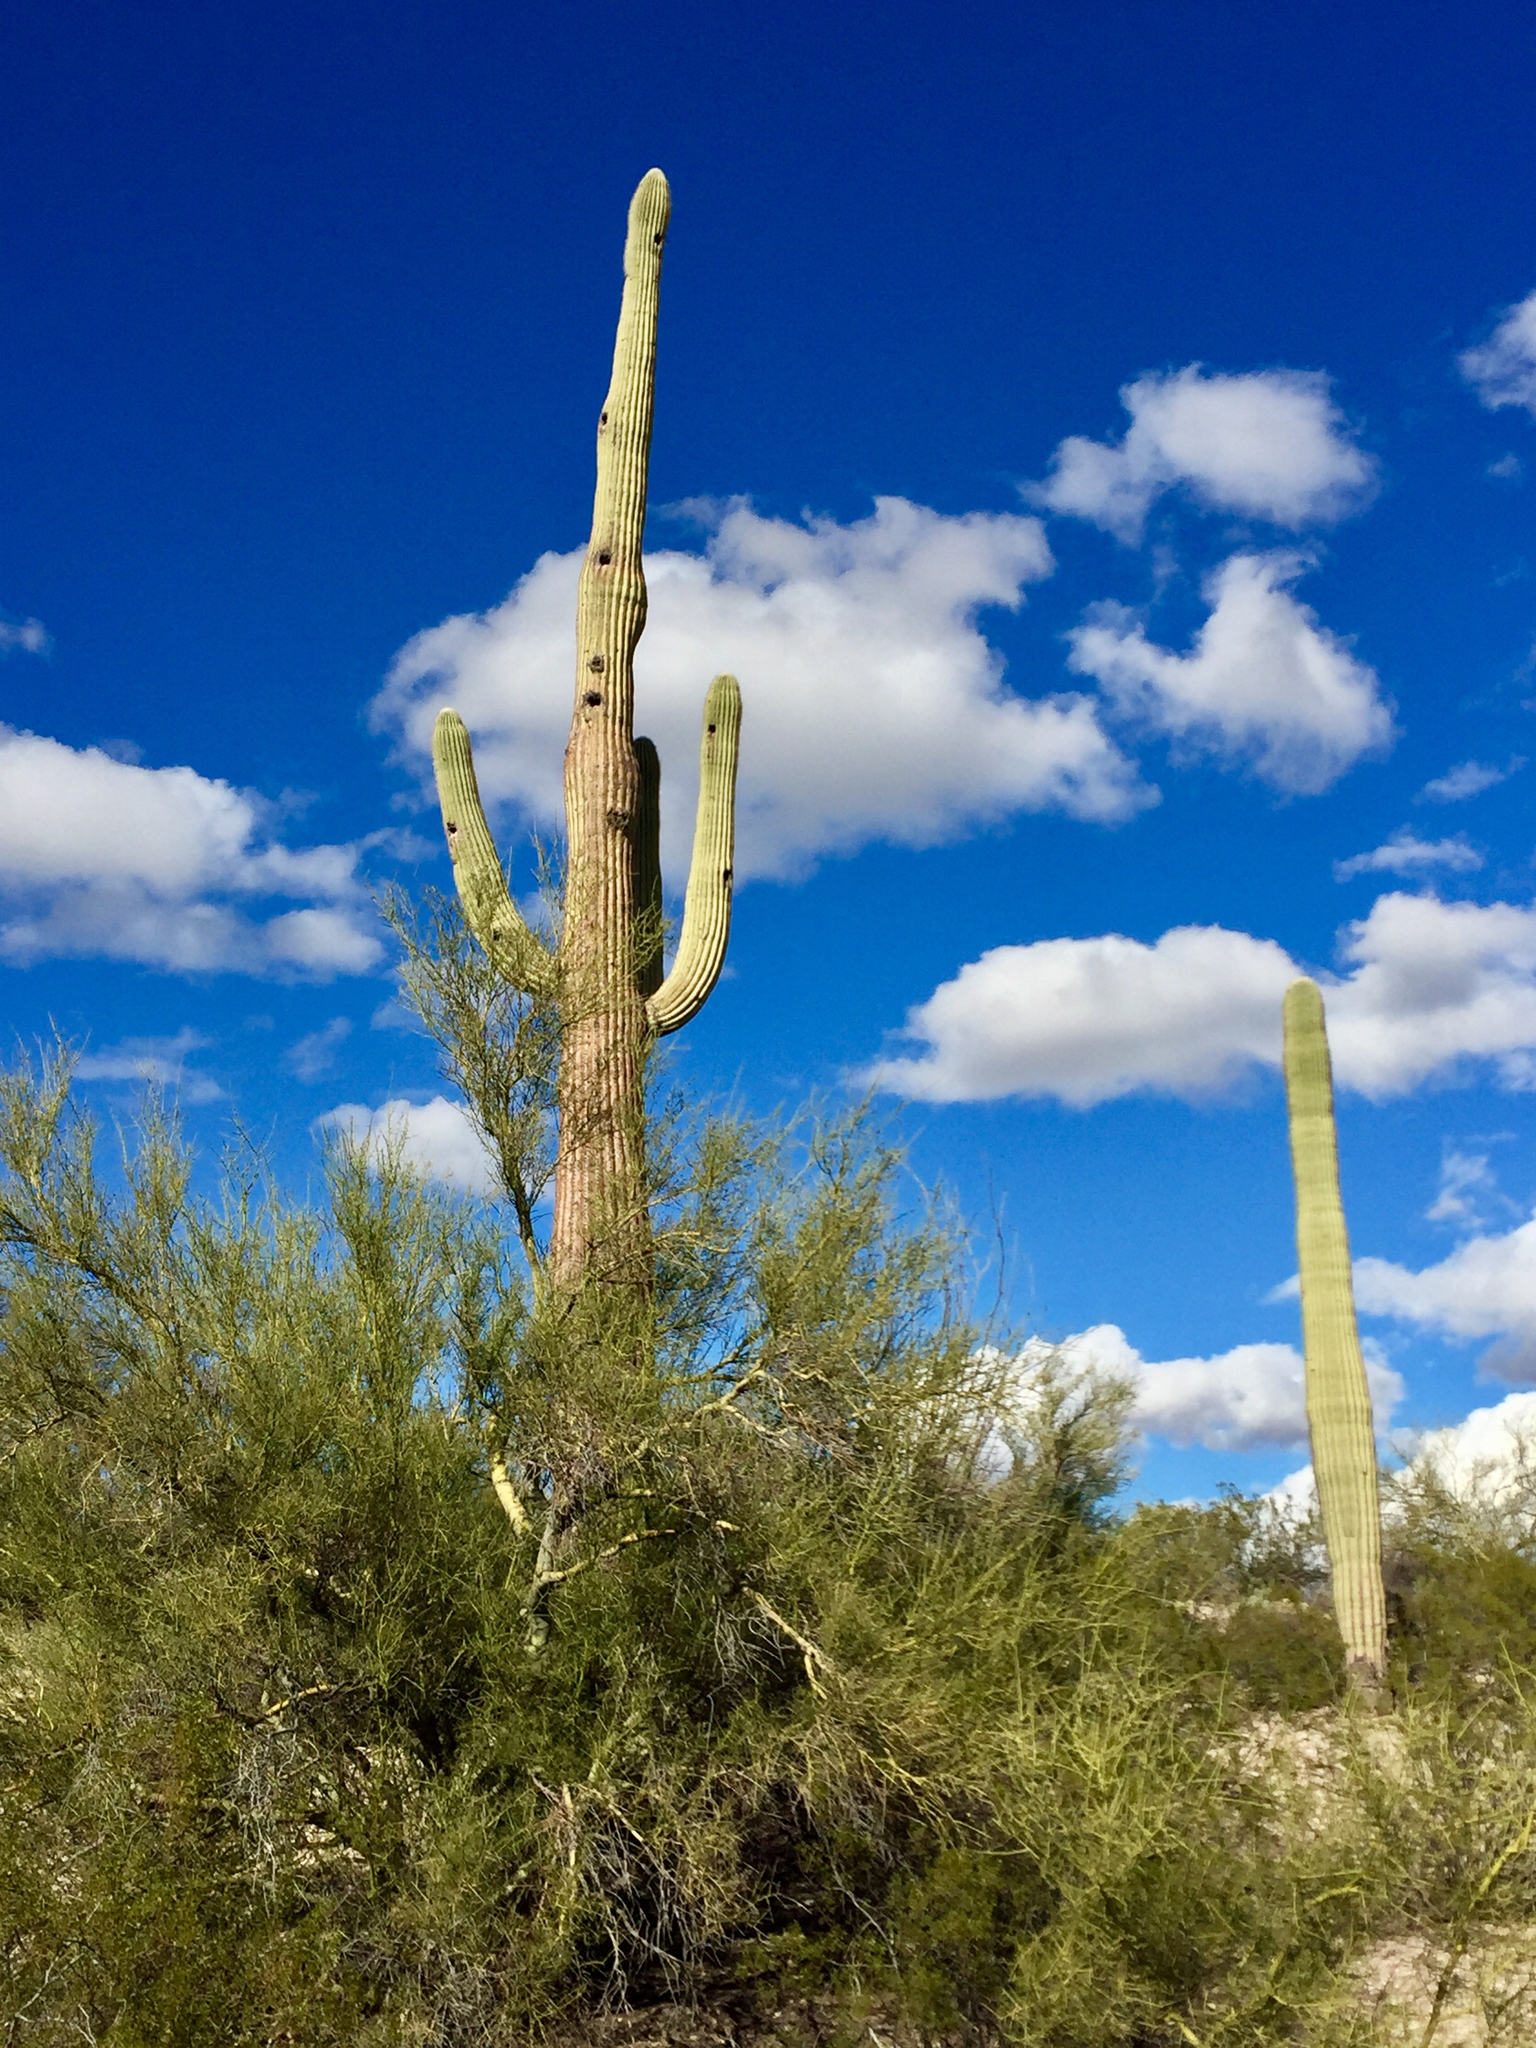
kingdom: Plantae
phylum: Tracheophyta
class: Magnoliopsida
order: Fabales
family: Fabaceae
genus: Parkinsonia
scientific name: Parkinsonia microphylla
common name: Yellow paloverde
